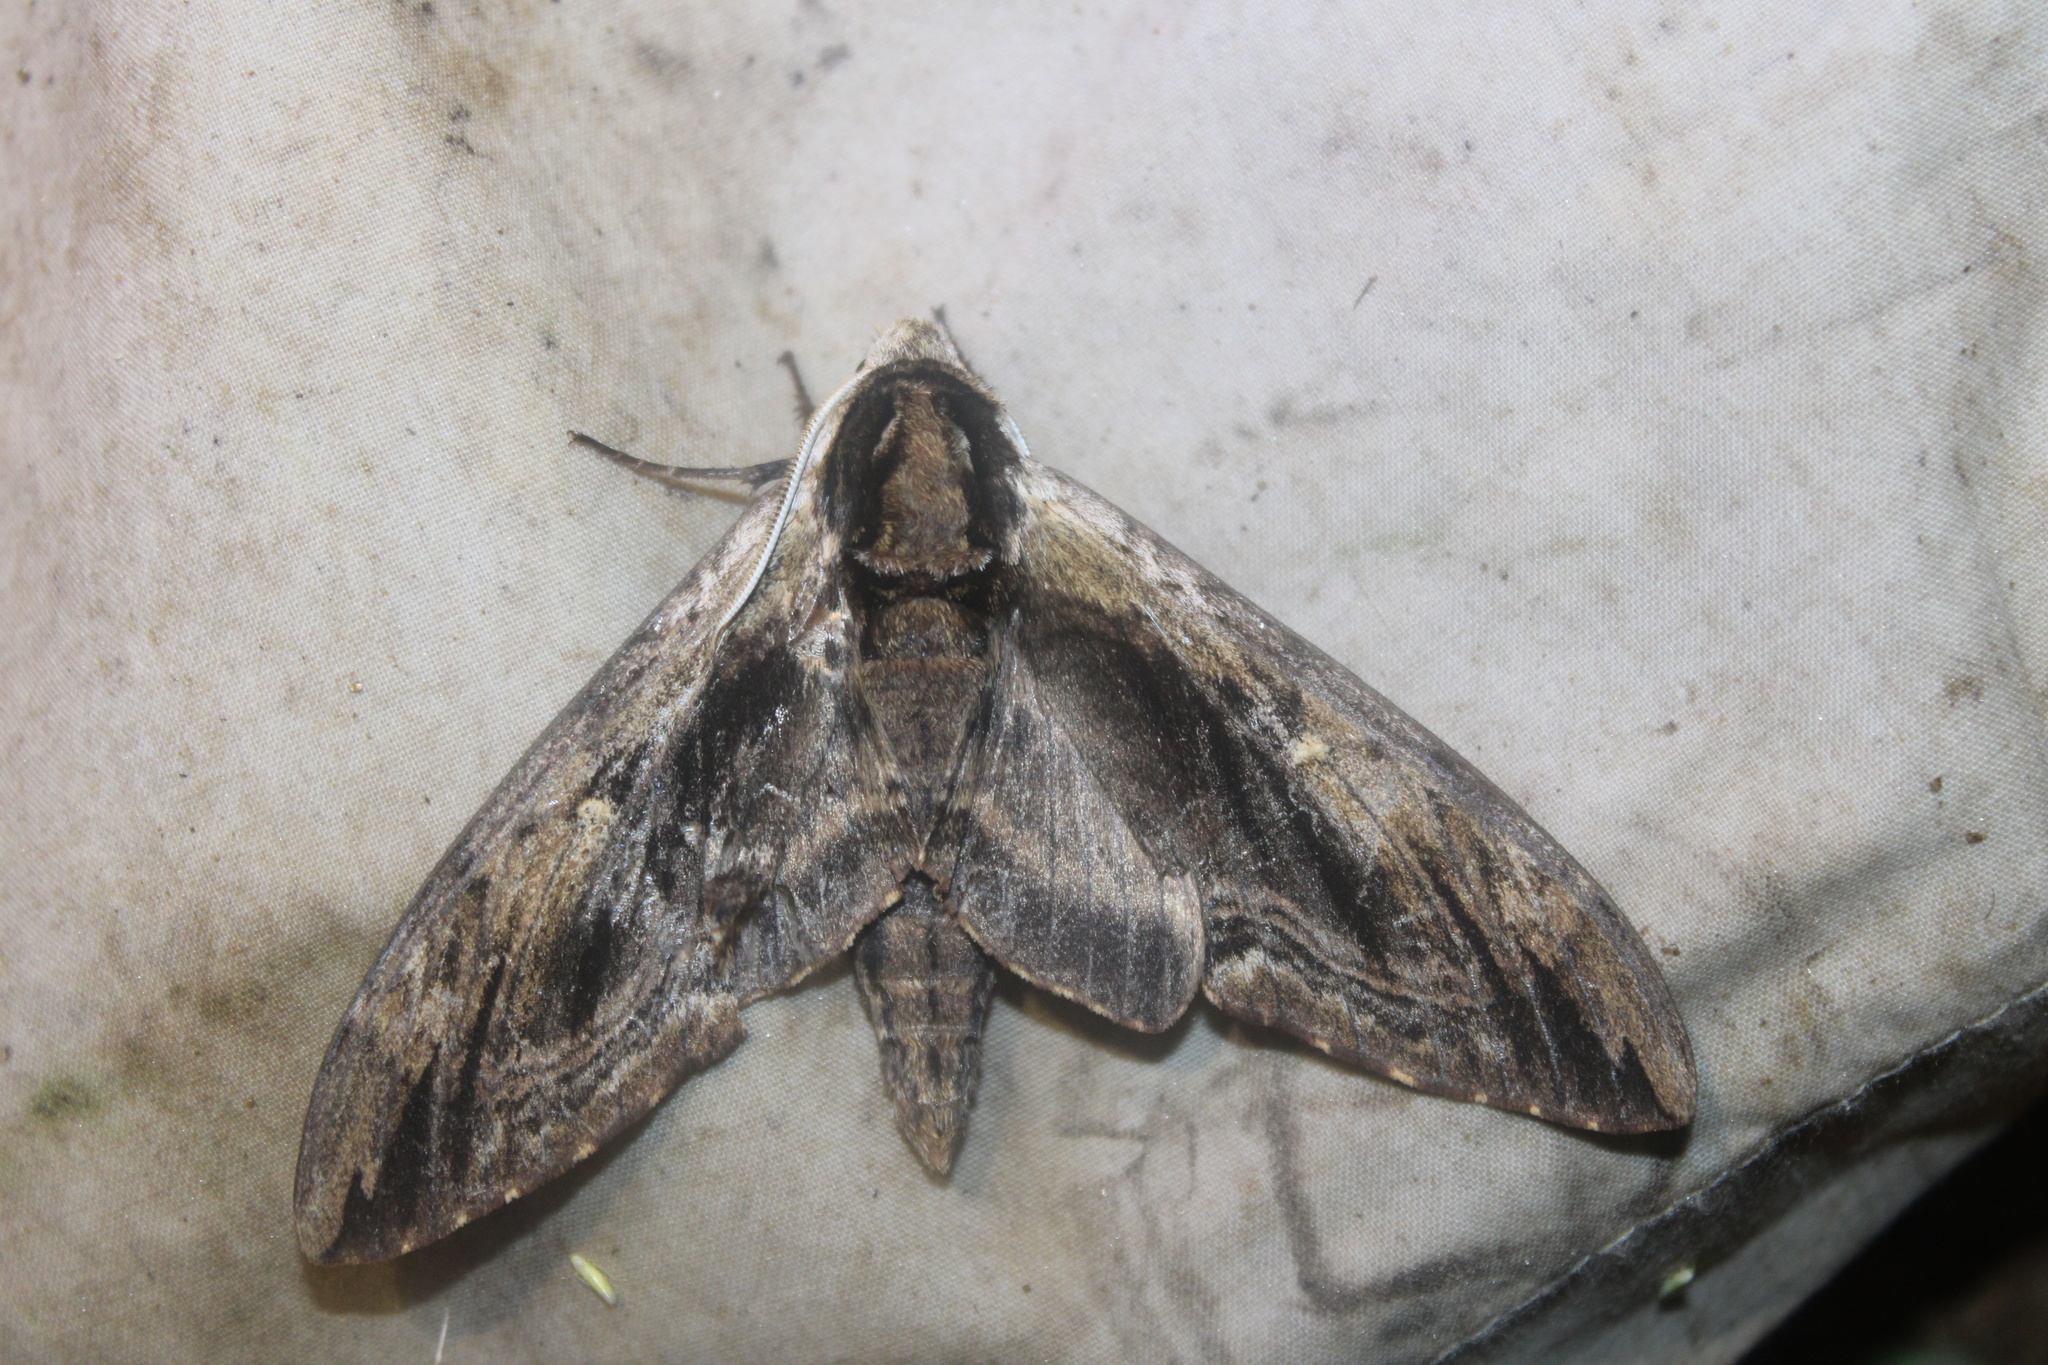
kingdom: Animalia
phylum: Arthropoda
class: Insecta
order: Lepidoptera
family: Sphingidae
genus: Ceratomia
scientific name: Ceratomia amyntor
